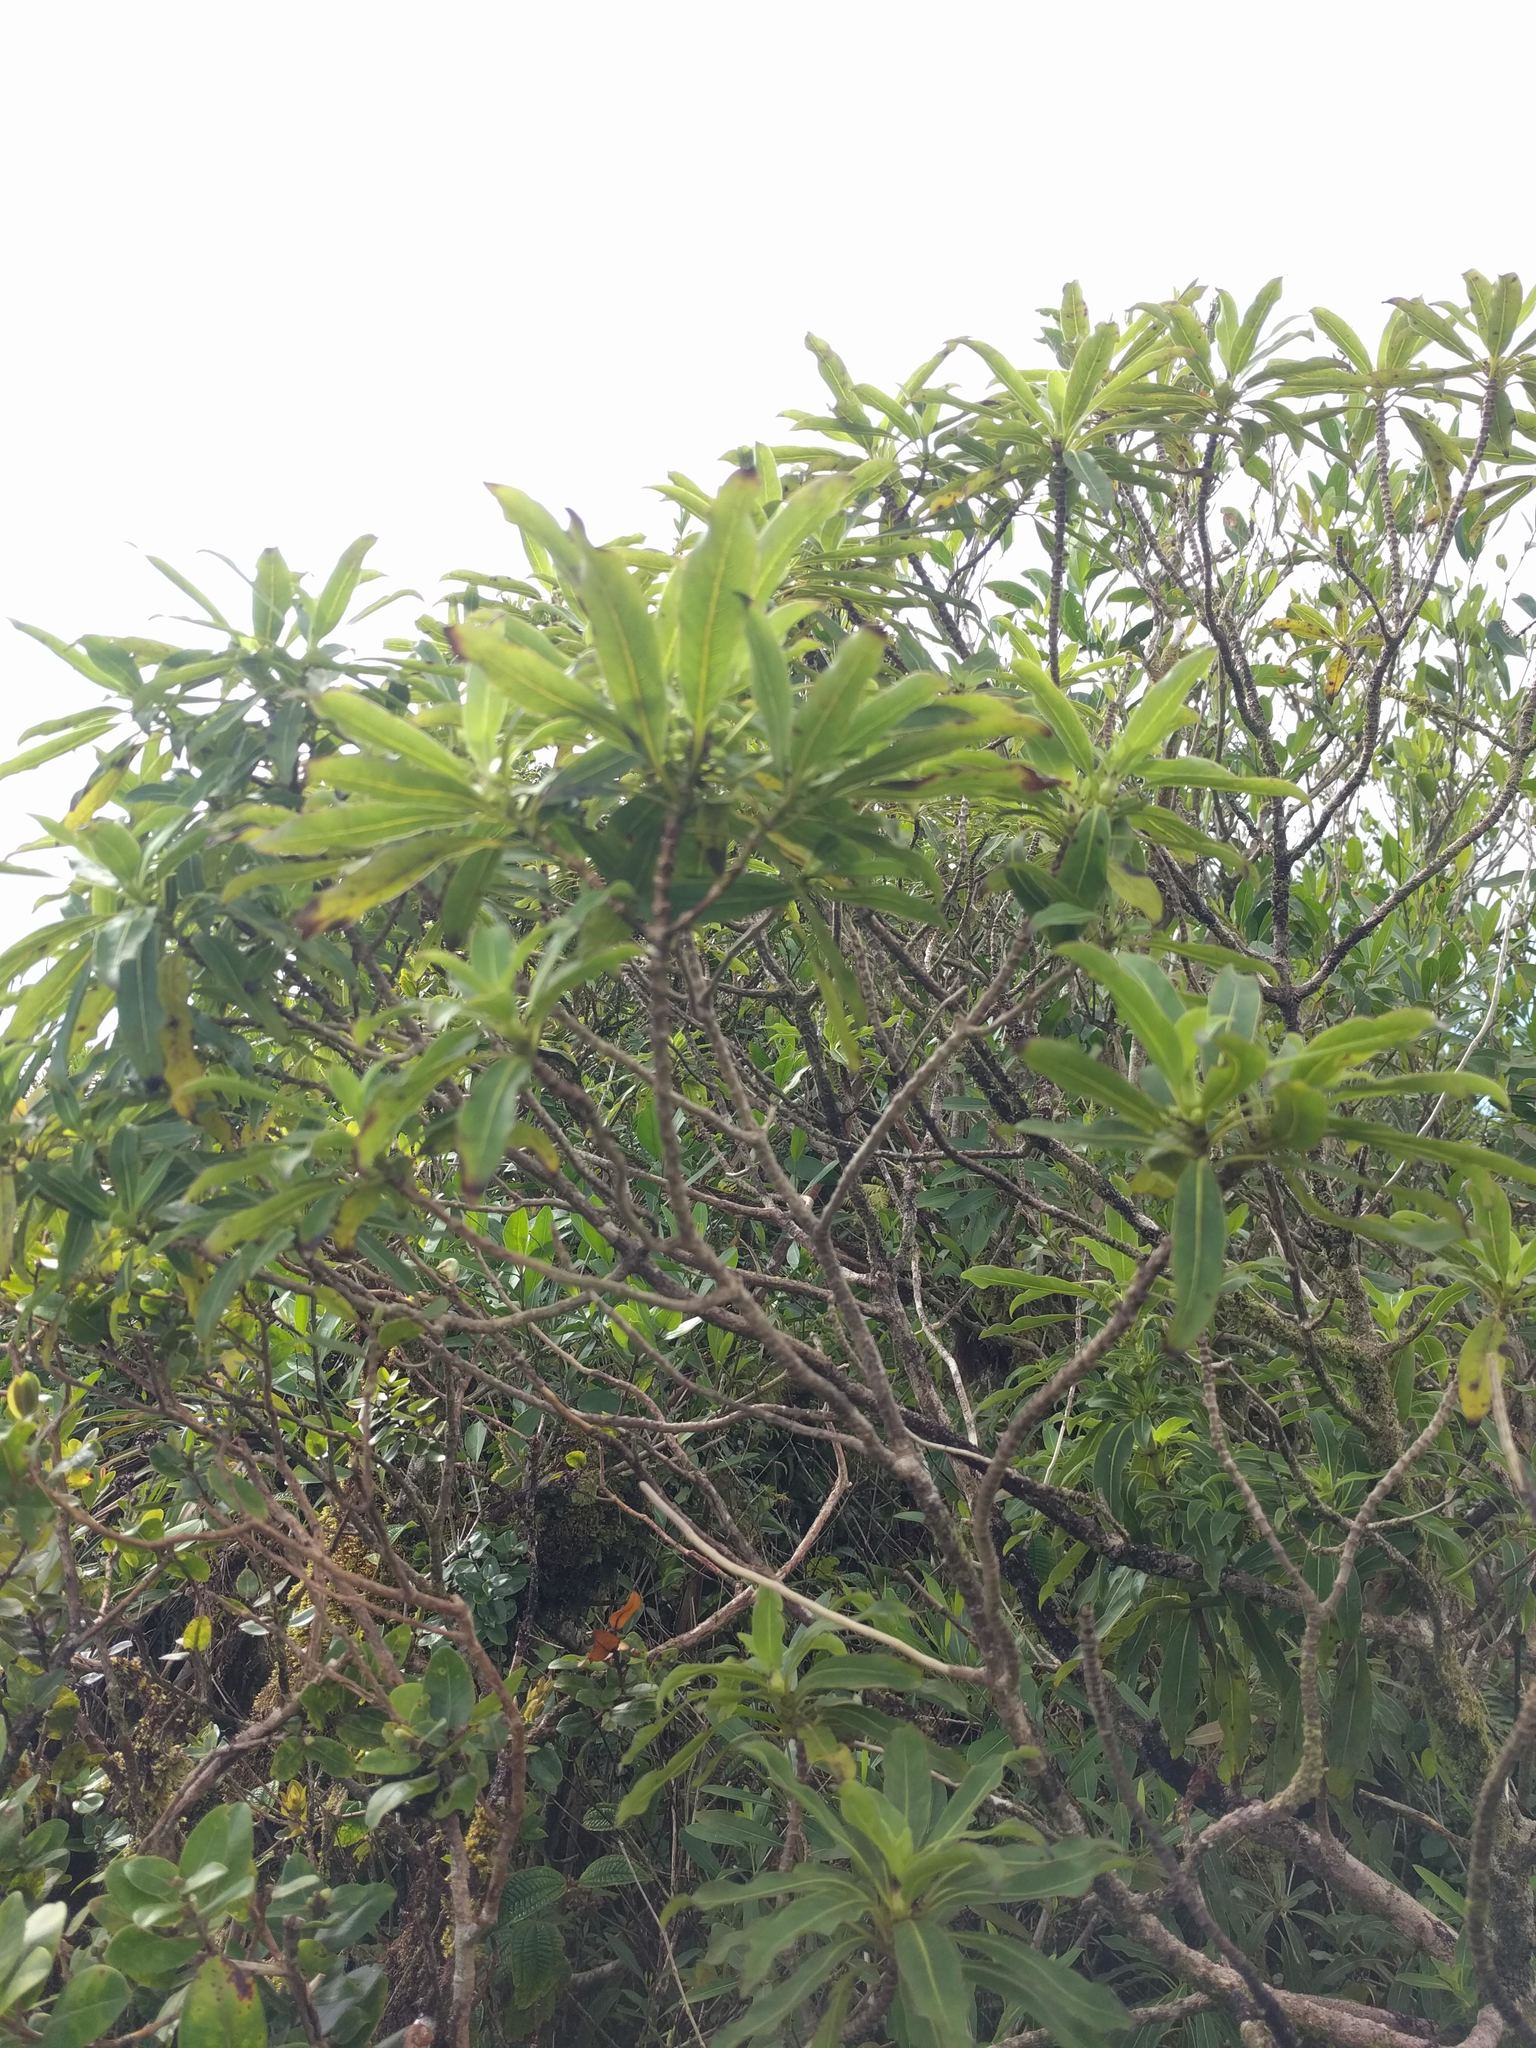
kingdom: Plantae
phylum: Tracheophyta
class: Magnoliopsida
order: Gentianales
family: Rubiaceae
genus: Coprosma
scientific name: Coprosma longifolia
